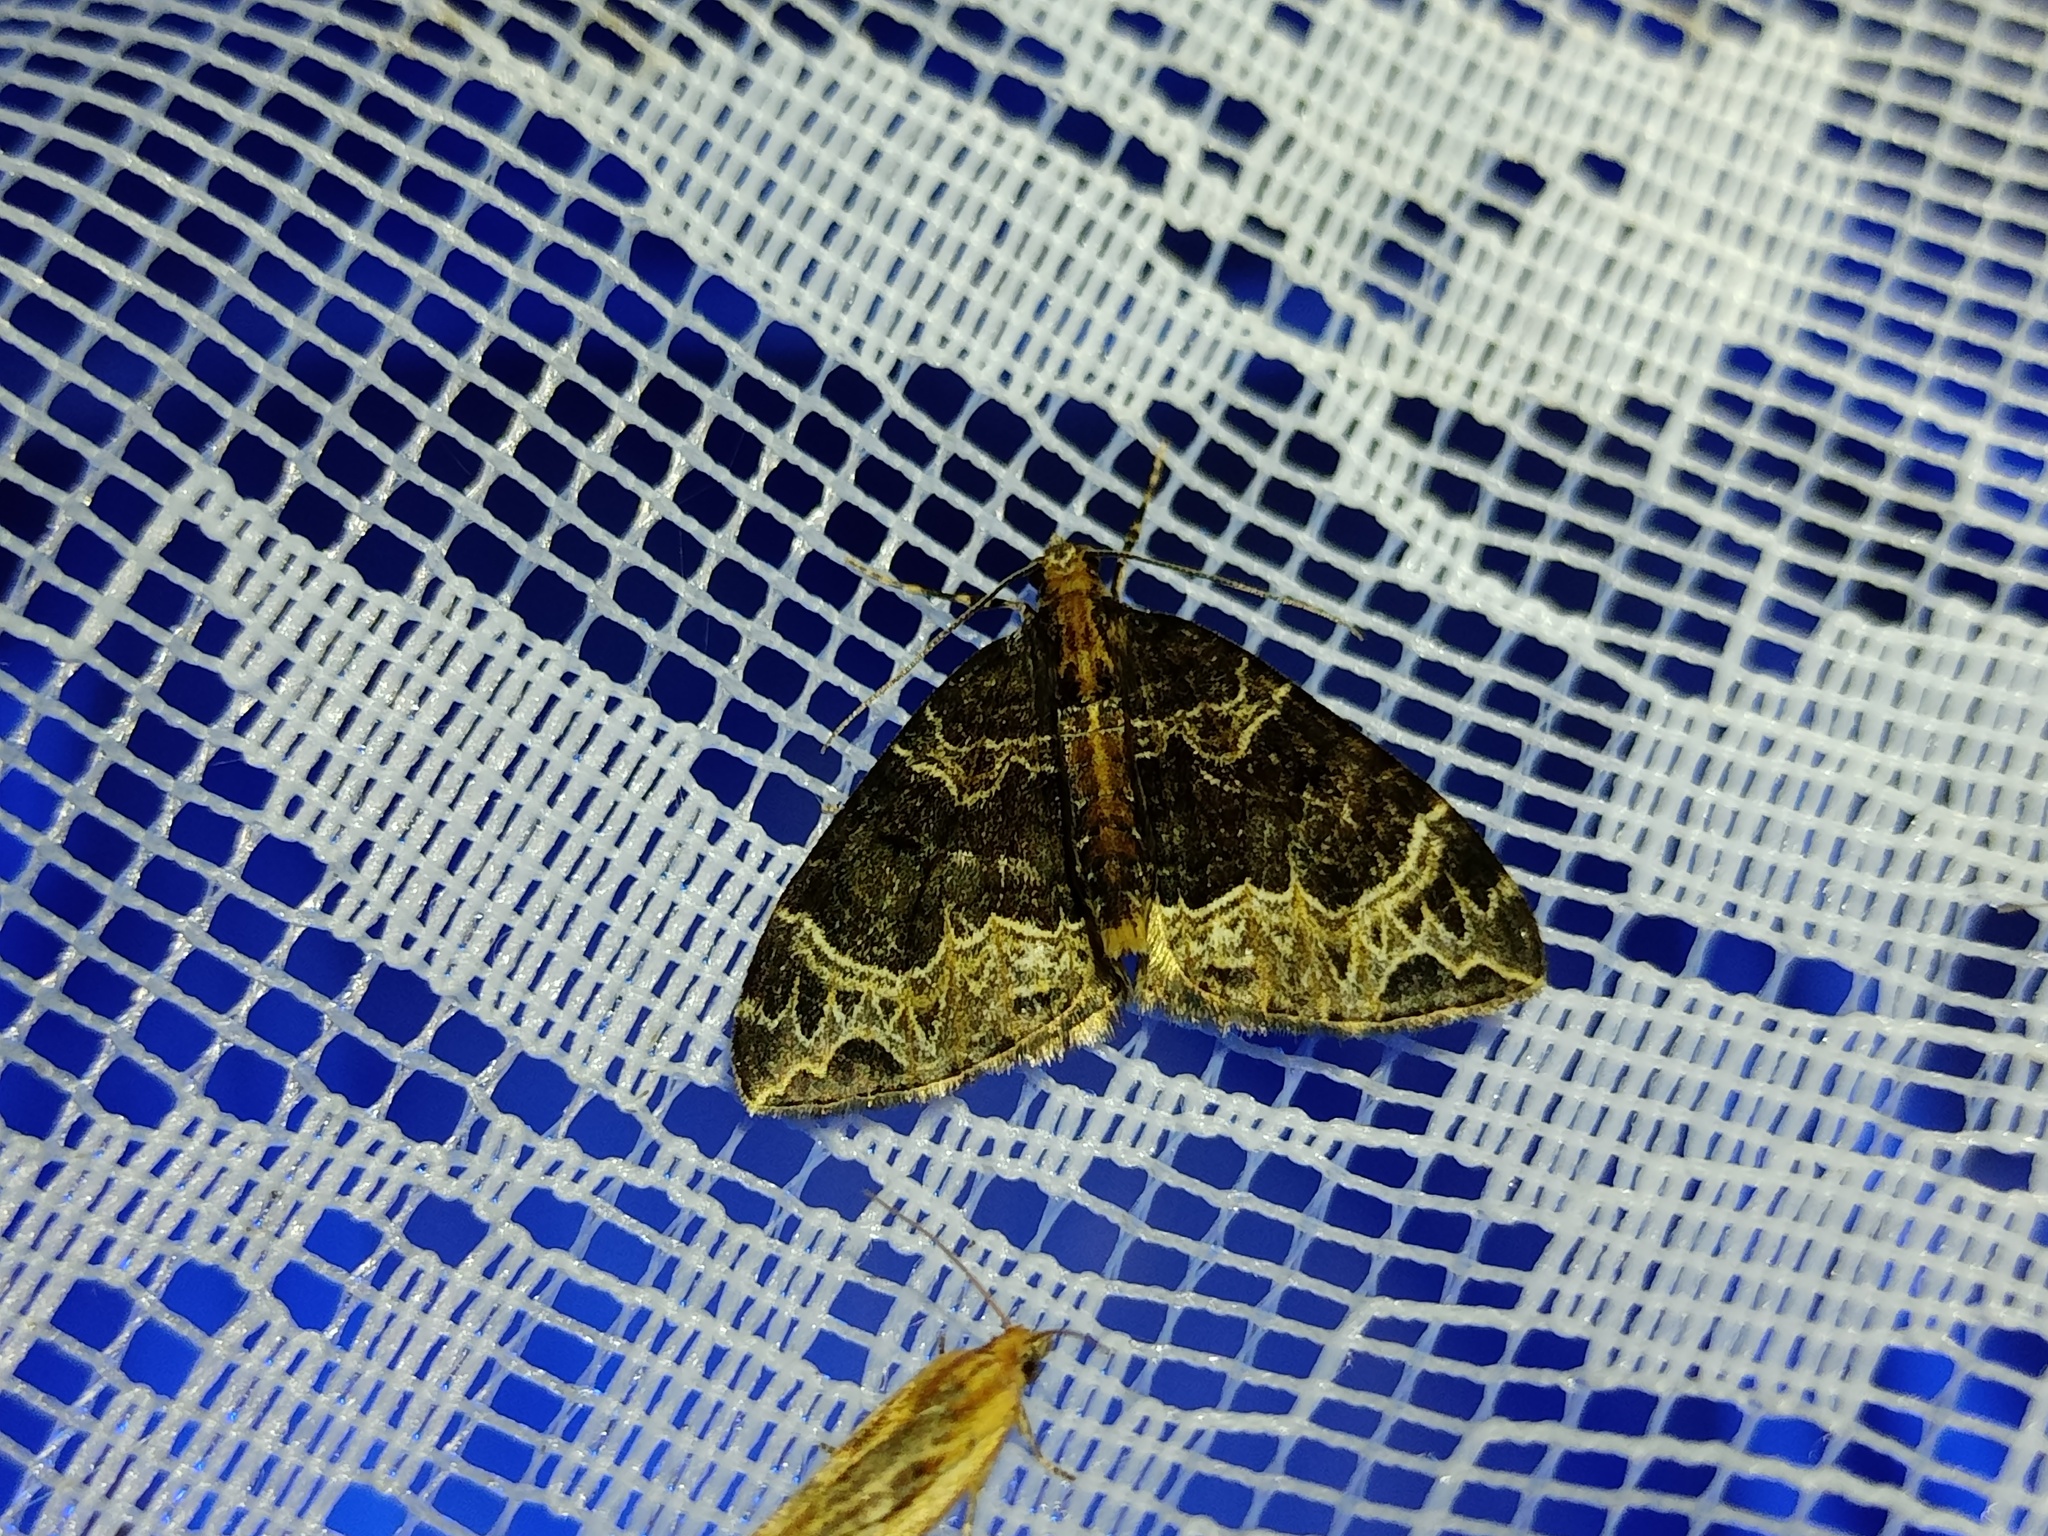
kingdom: Animalia
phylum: Arthropoda
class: Insecta
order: Lepidoptera
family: Geometridae
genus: Ecliptopera
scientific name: Ecliptopera silaceata
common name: Small phoenix
